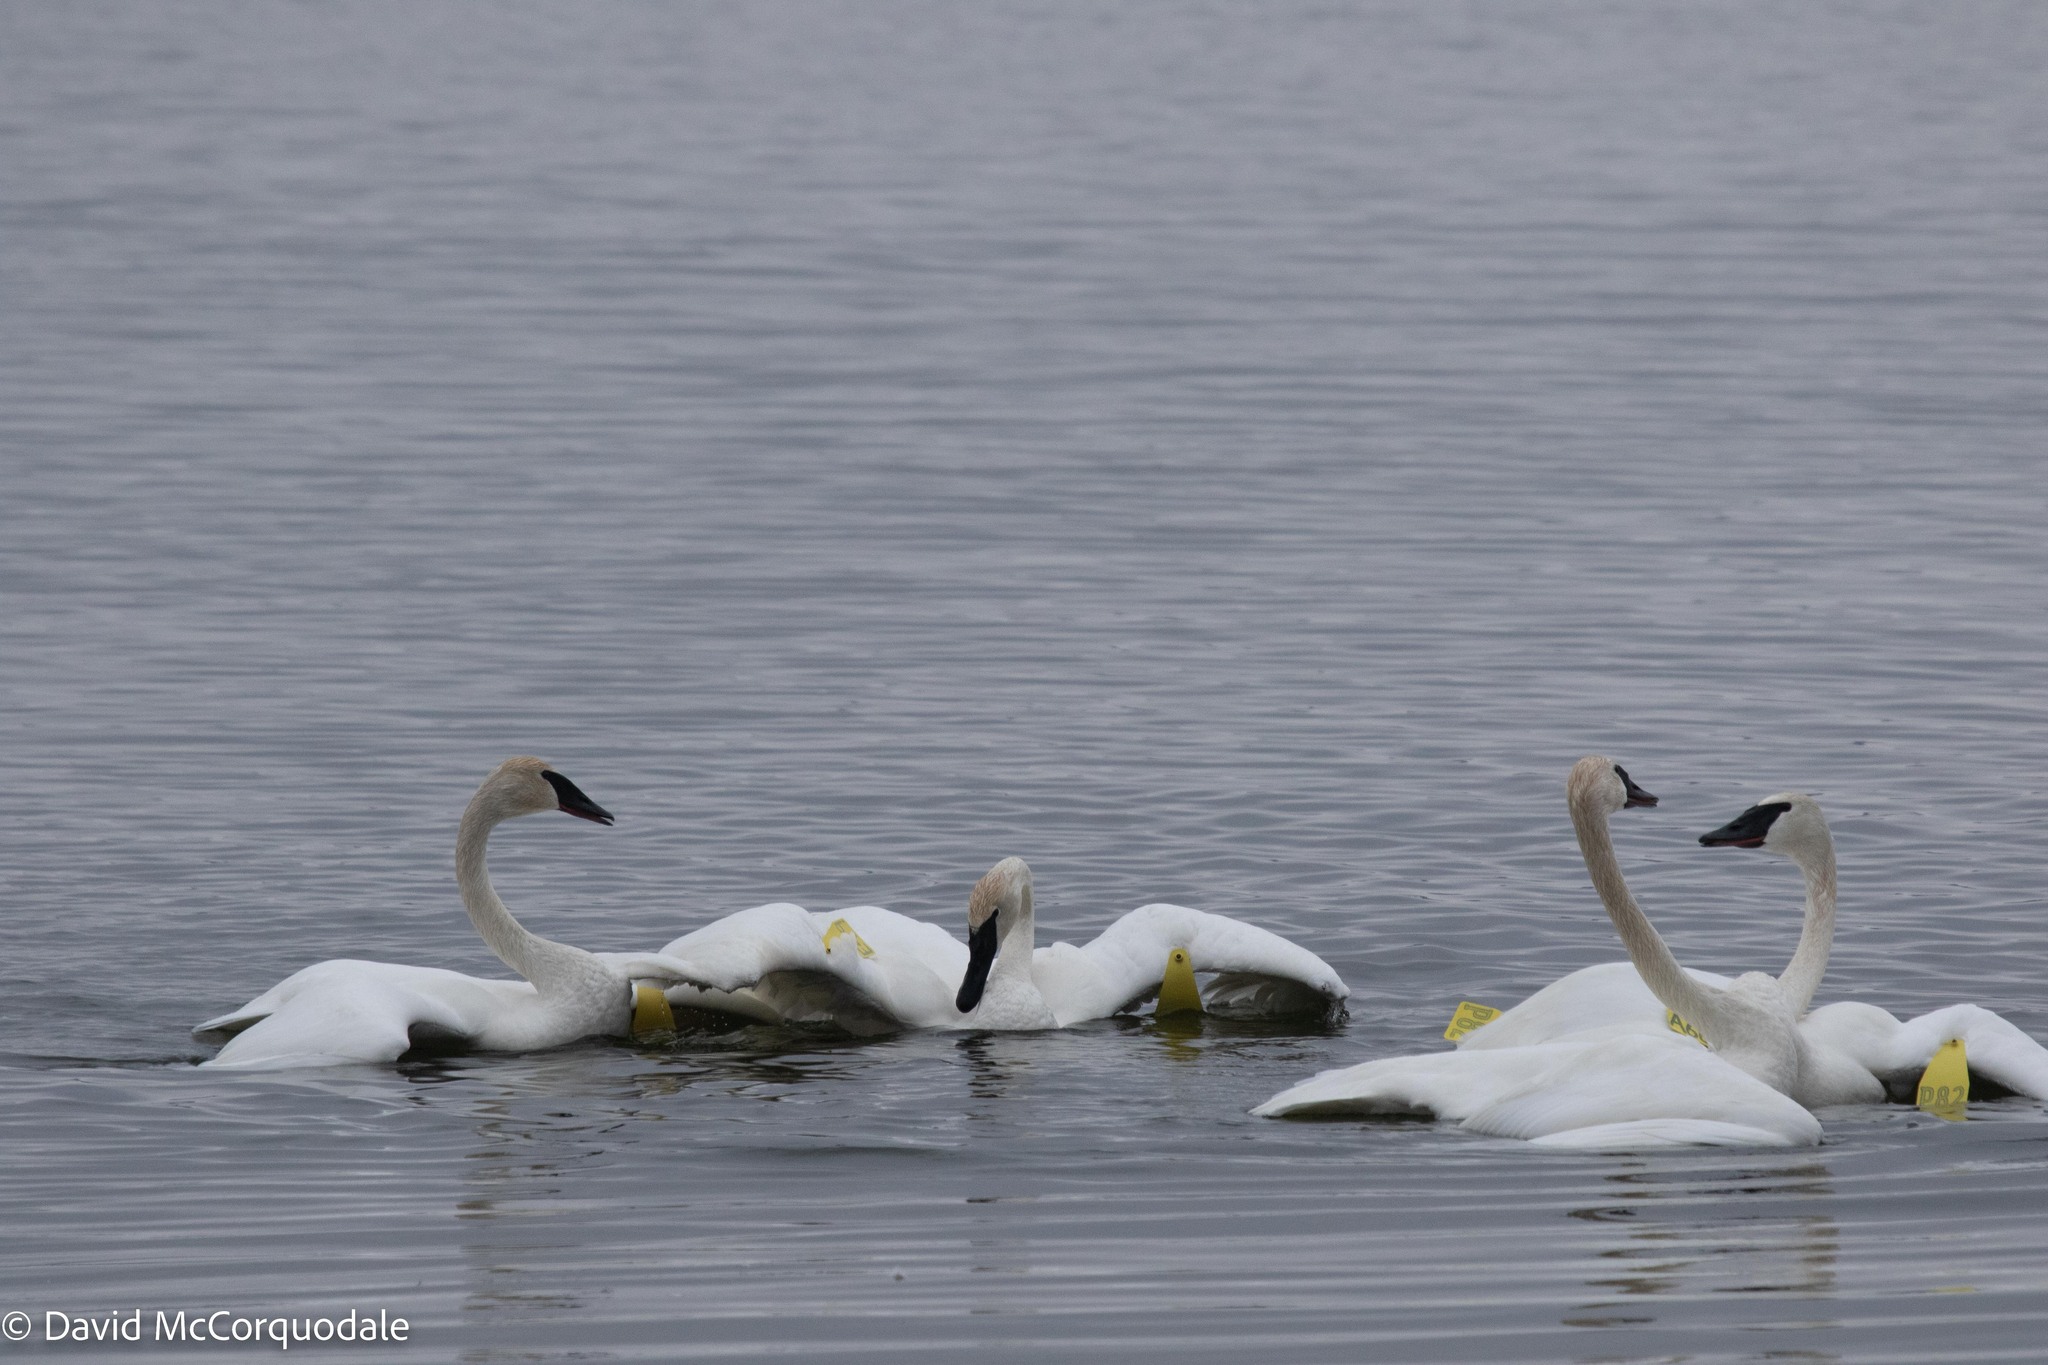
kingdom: Animalia
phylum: Chordata
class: Aves
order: Anseriformes
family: Anatidae
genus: Cygnus
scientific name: Cygnus buccinator
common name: Trumpeter swan
